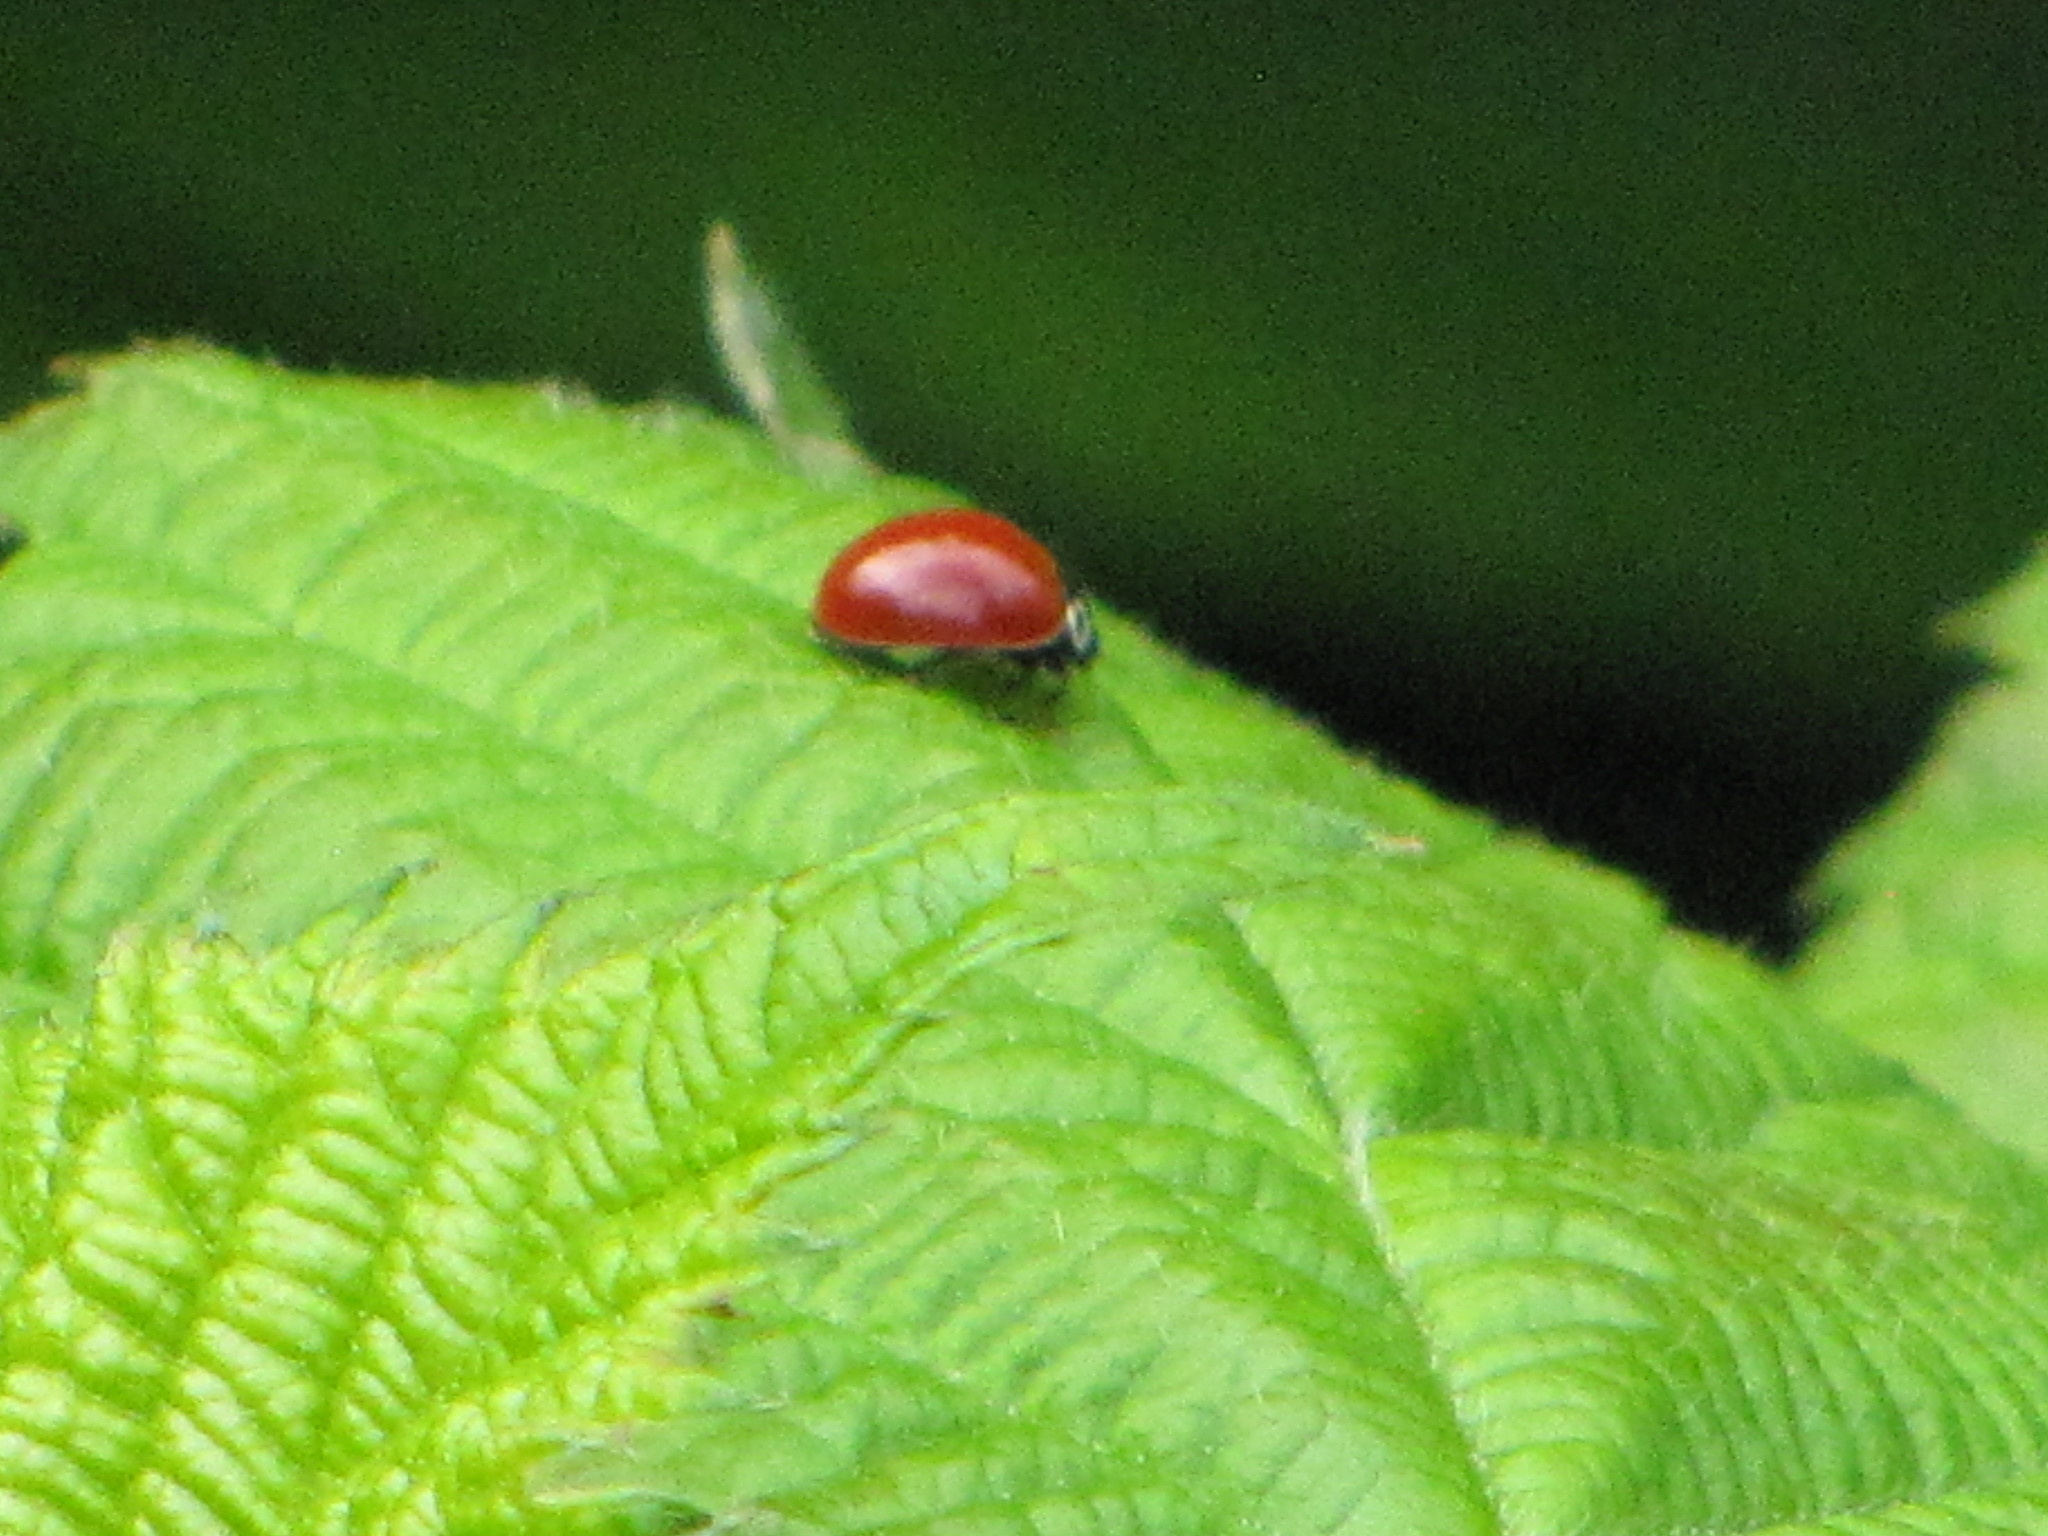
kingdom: Animalia
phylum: Arthropoda
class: Insecta
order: Coleoptera
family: Coccinellidae
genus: Cycloneda
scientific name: Cycloneda polita
